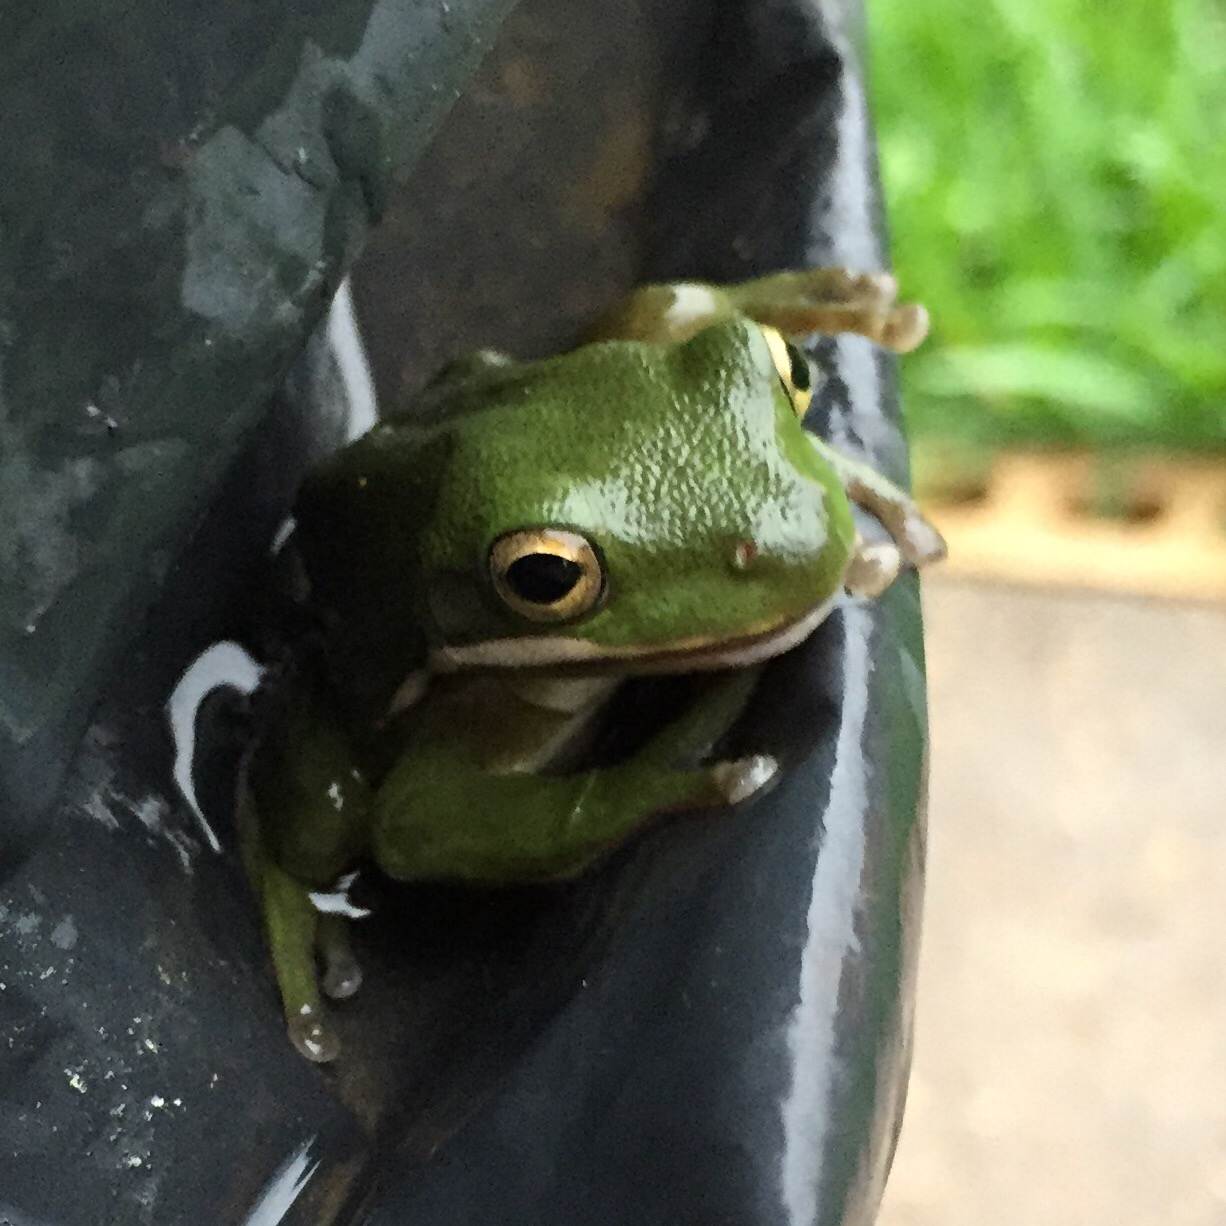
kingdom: Animalia
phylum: Chordata
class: Amphibia
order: Anura
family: Hylidae
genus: Dryophytes
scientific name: Dryophytes cinereus
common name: Green treefrog
